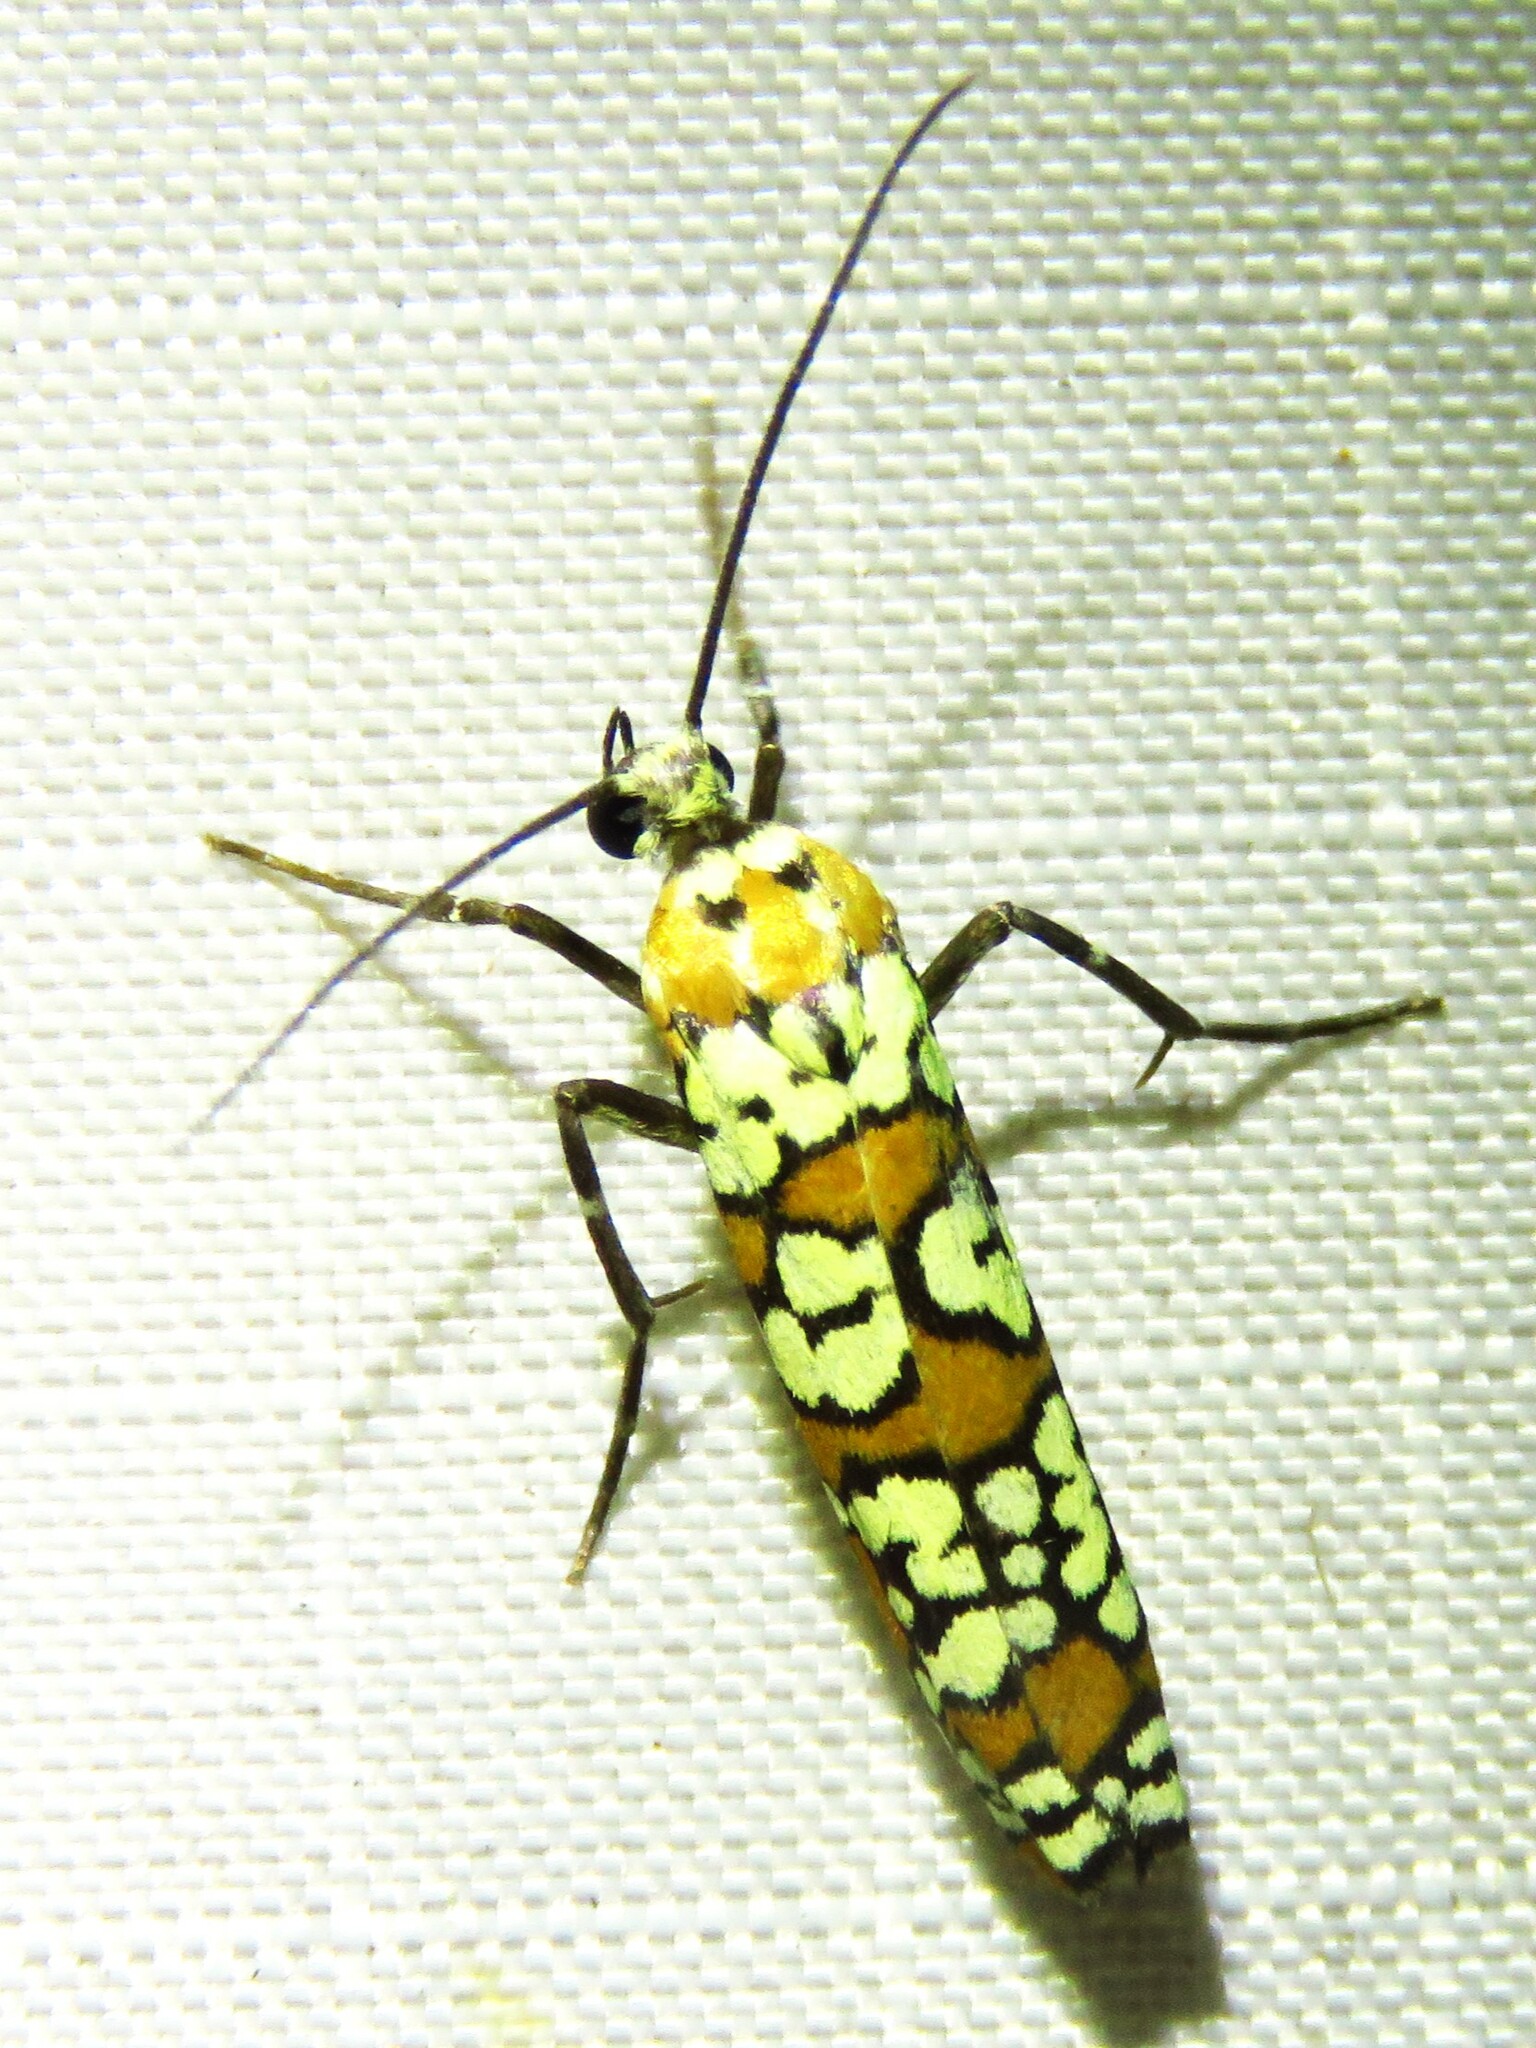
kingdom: Animalia
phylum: Arthropoda
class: Insecta
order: Lepidoptera
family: Attevidae
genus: Atteva
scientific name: Atteva punctella
